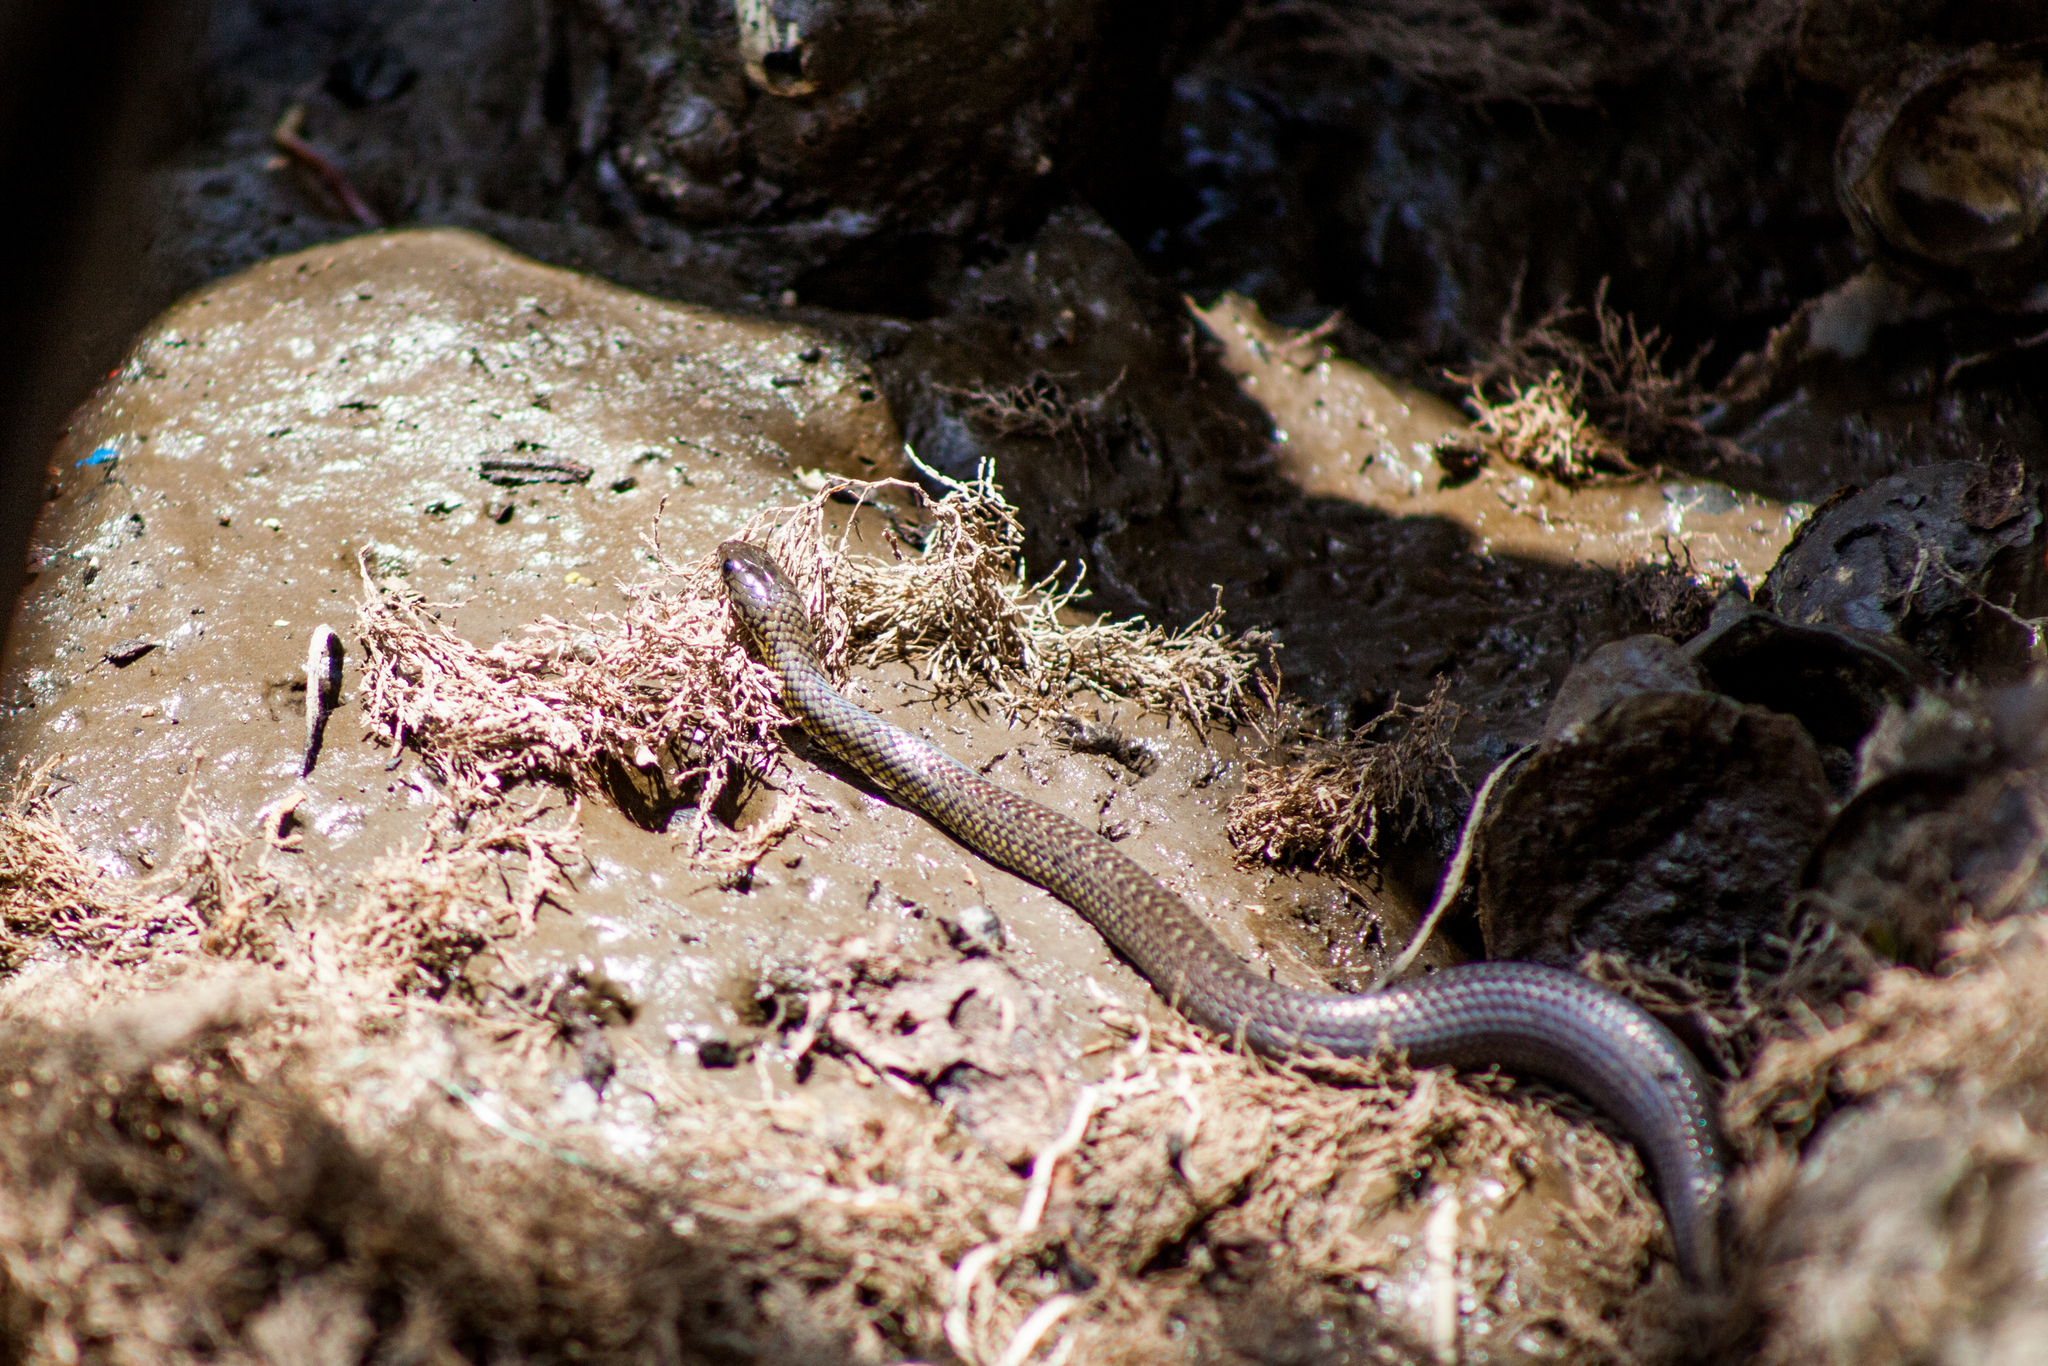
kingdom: Animalia
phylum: Chordata
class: Squamata
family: Colubridae
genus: Erythrolamprus
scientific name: Erythrolamprus miliaris
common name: Military ground snake
